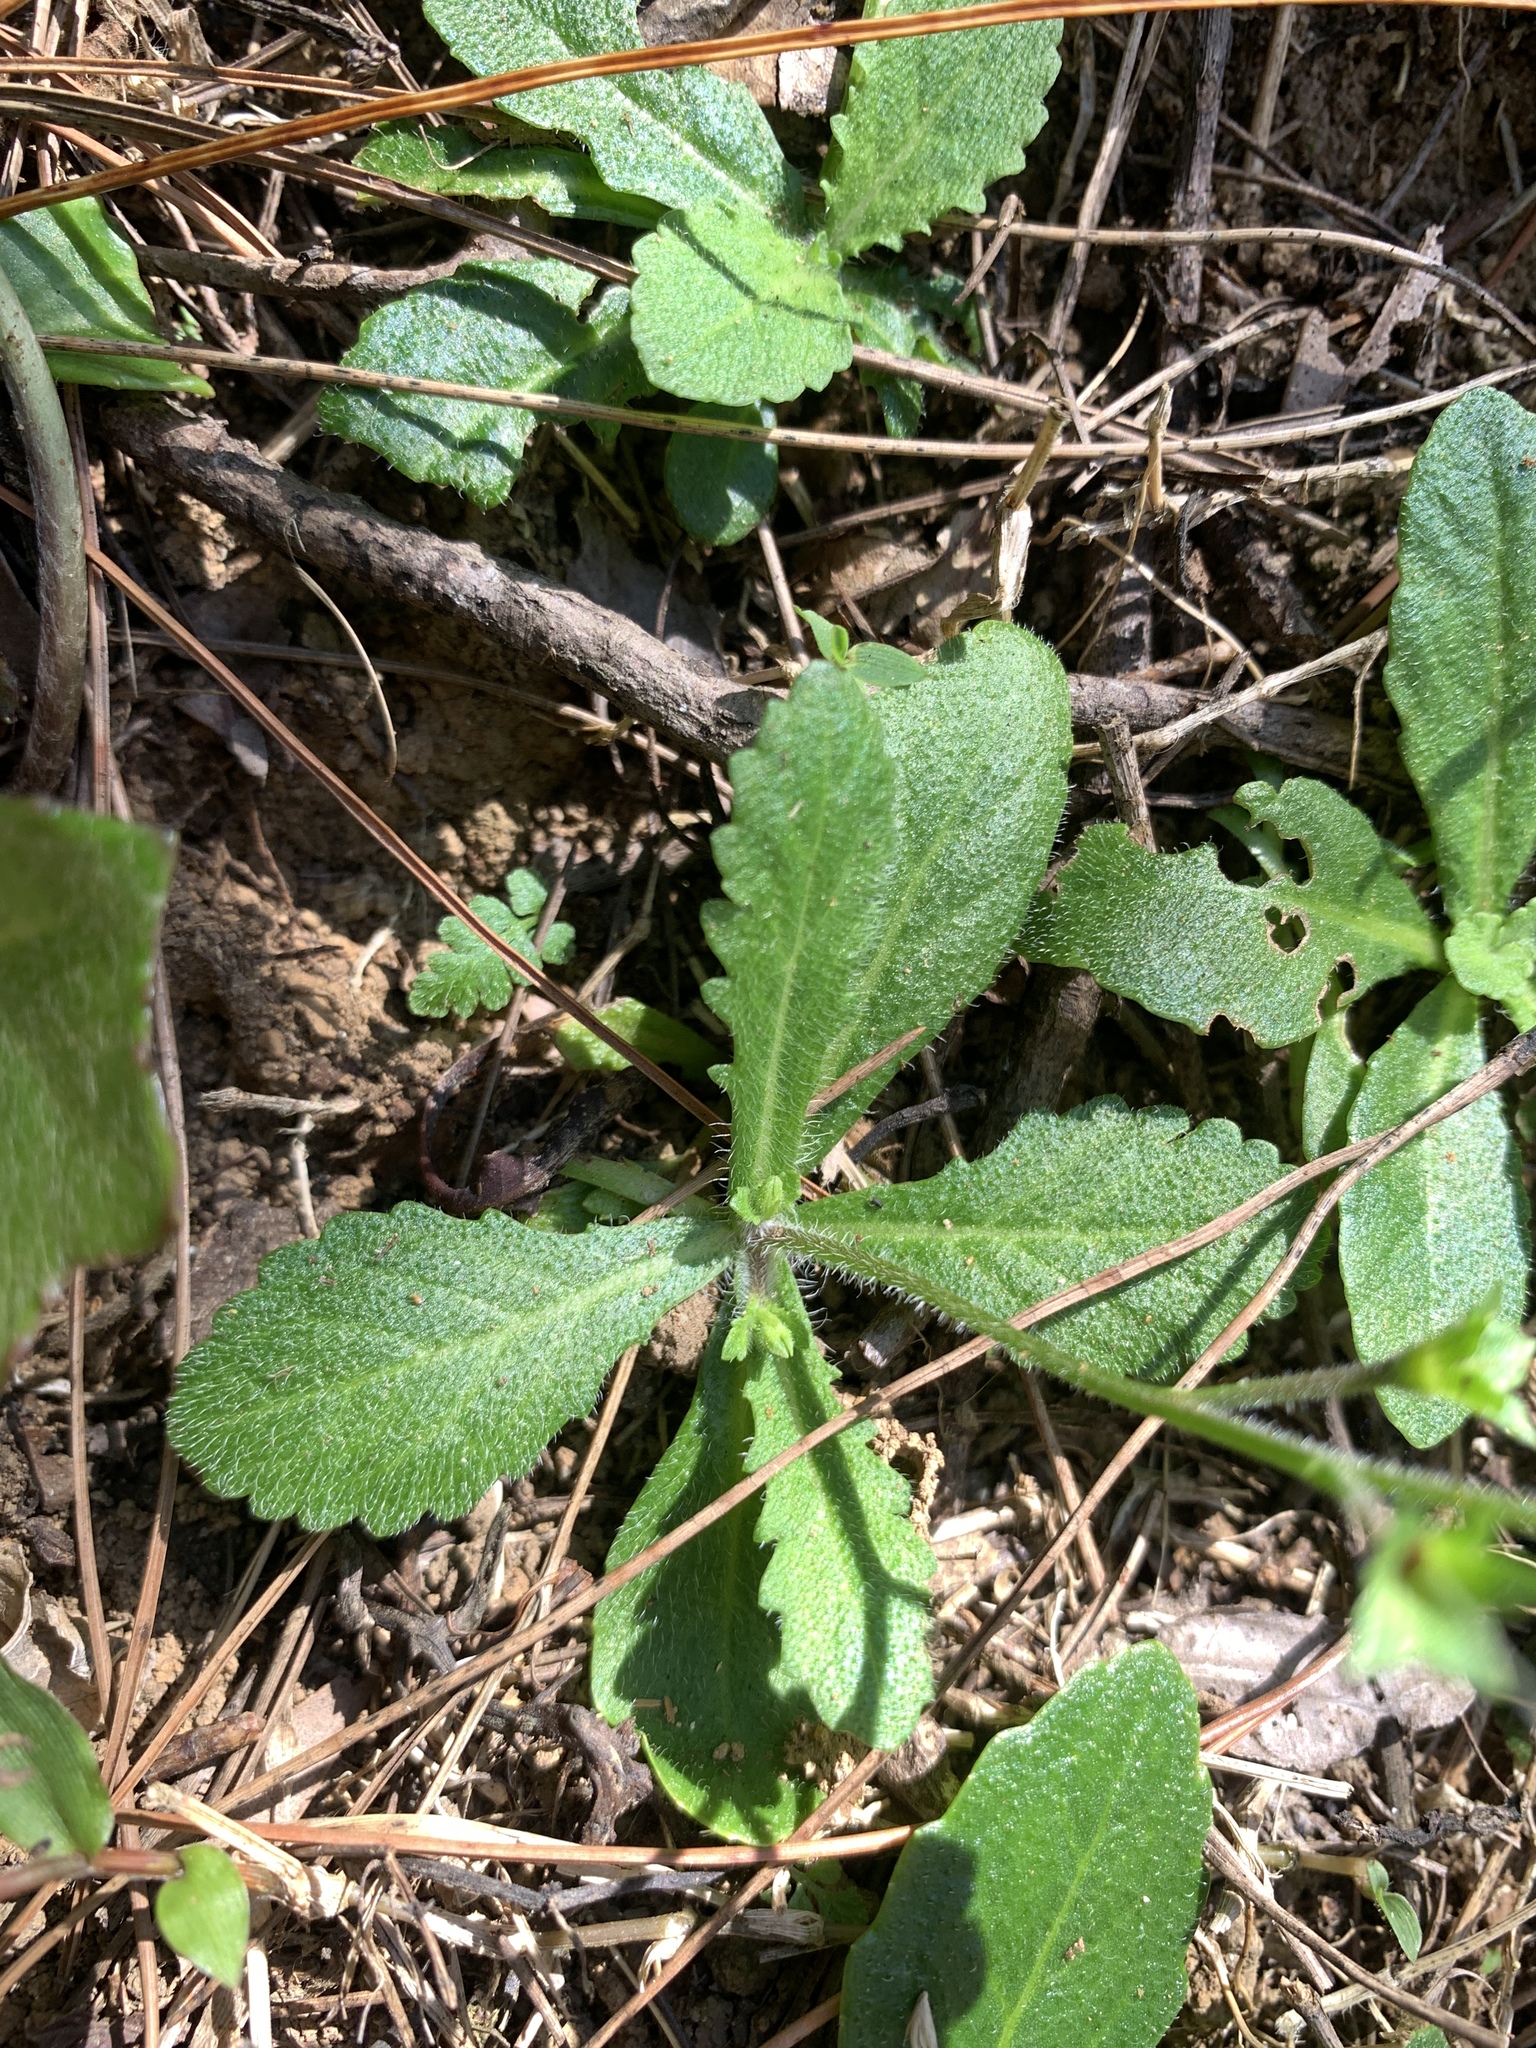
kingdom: Plantae
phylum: Tracheophyta
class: Magnoliopsida
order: Lamiales
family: Mazaceae
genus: Mazus
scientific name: Mazus fauriei
